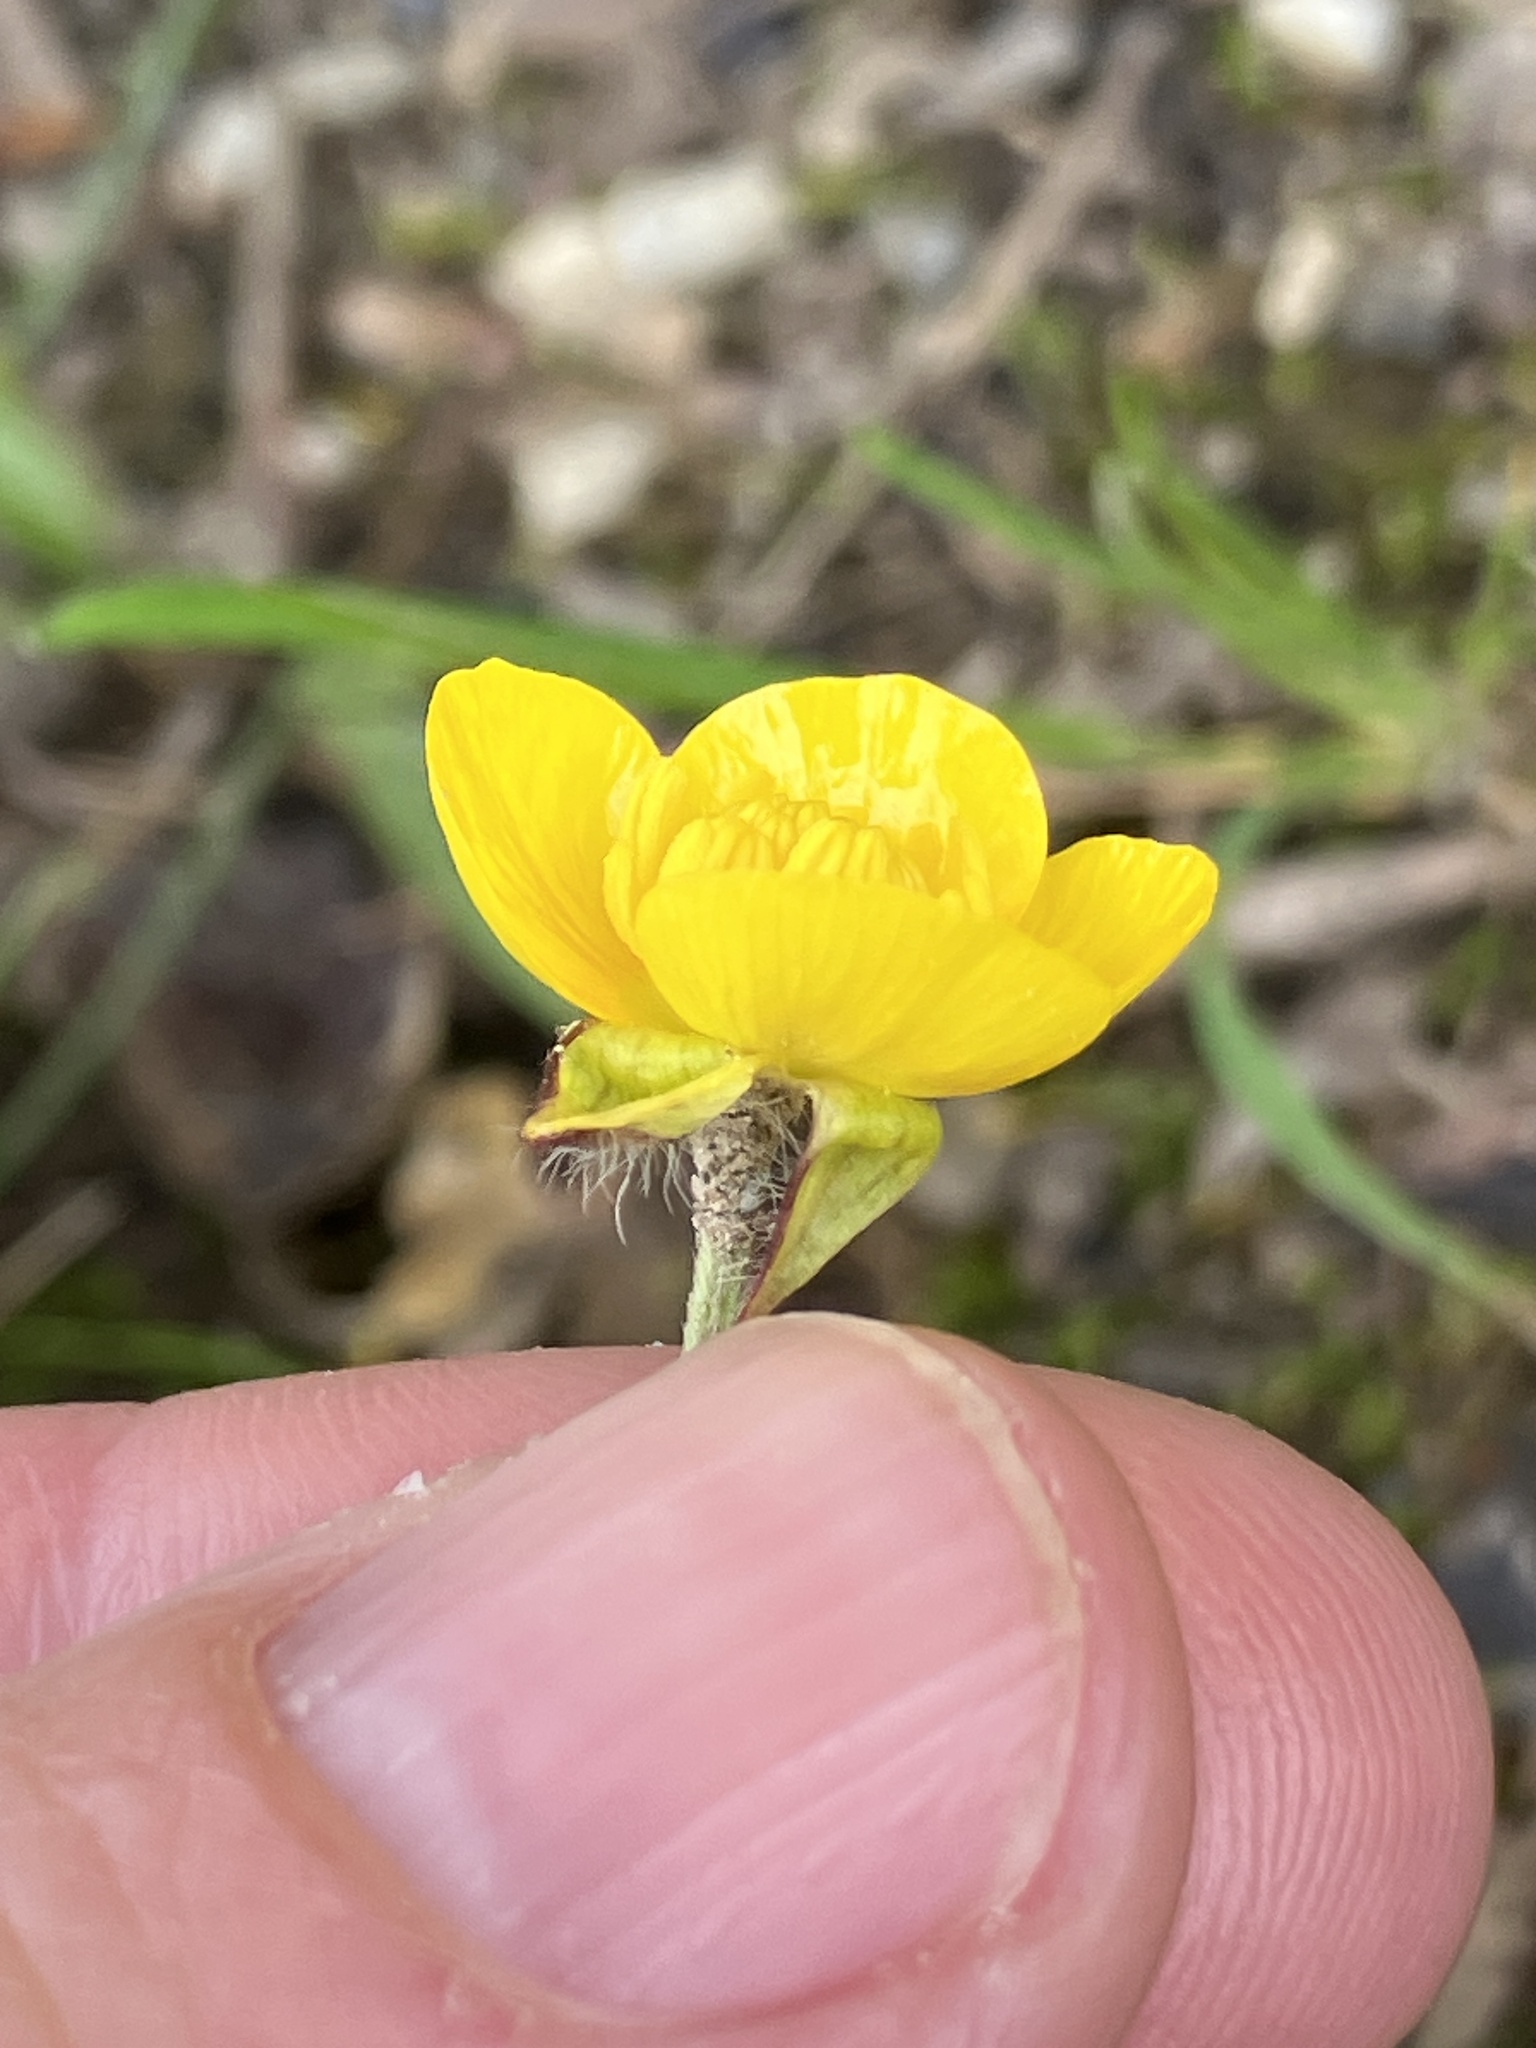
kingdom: Plantae
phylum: Tracheophyta
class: Magnoliopsida
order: Ranunculales
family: Ranunculaceae
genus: Ranunculus
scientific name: Ranunculus bulbosus
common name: Bulbous buttercup
